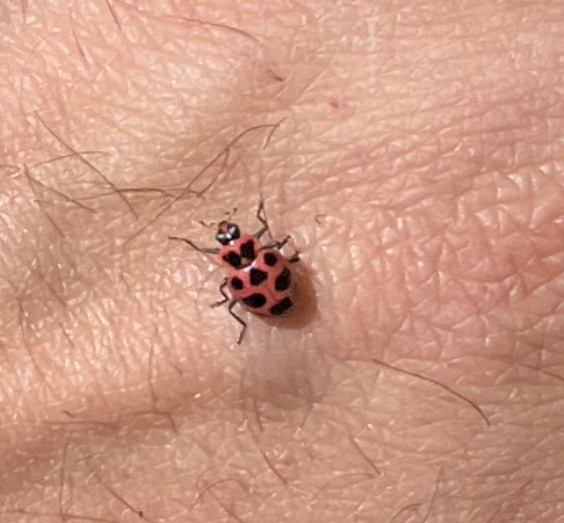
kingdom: Animalia
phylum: Arthropoda
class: Insecta
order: Coleoptera
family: Coccinellidae
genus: Coleomegilla
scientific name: Coleomegilla maculata
